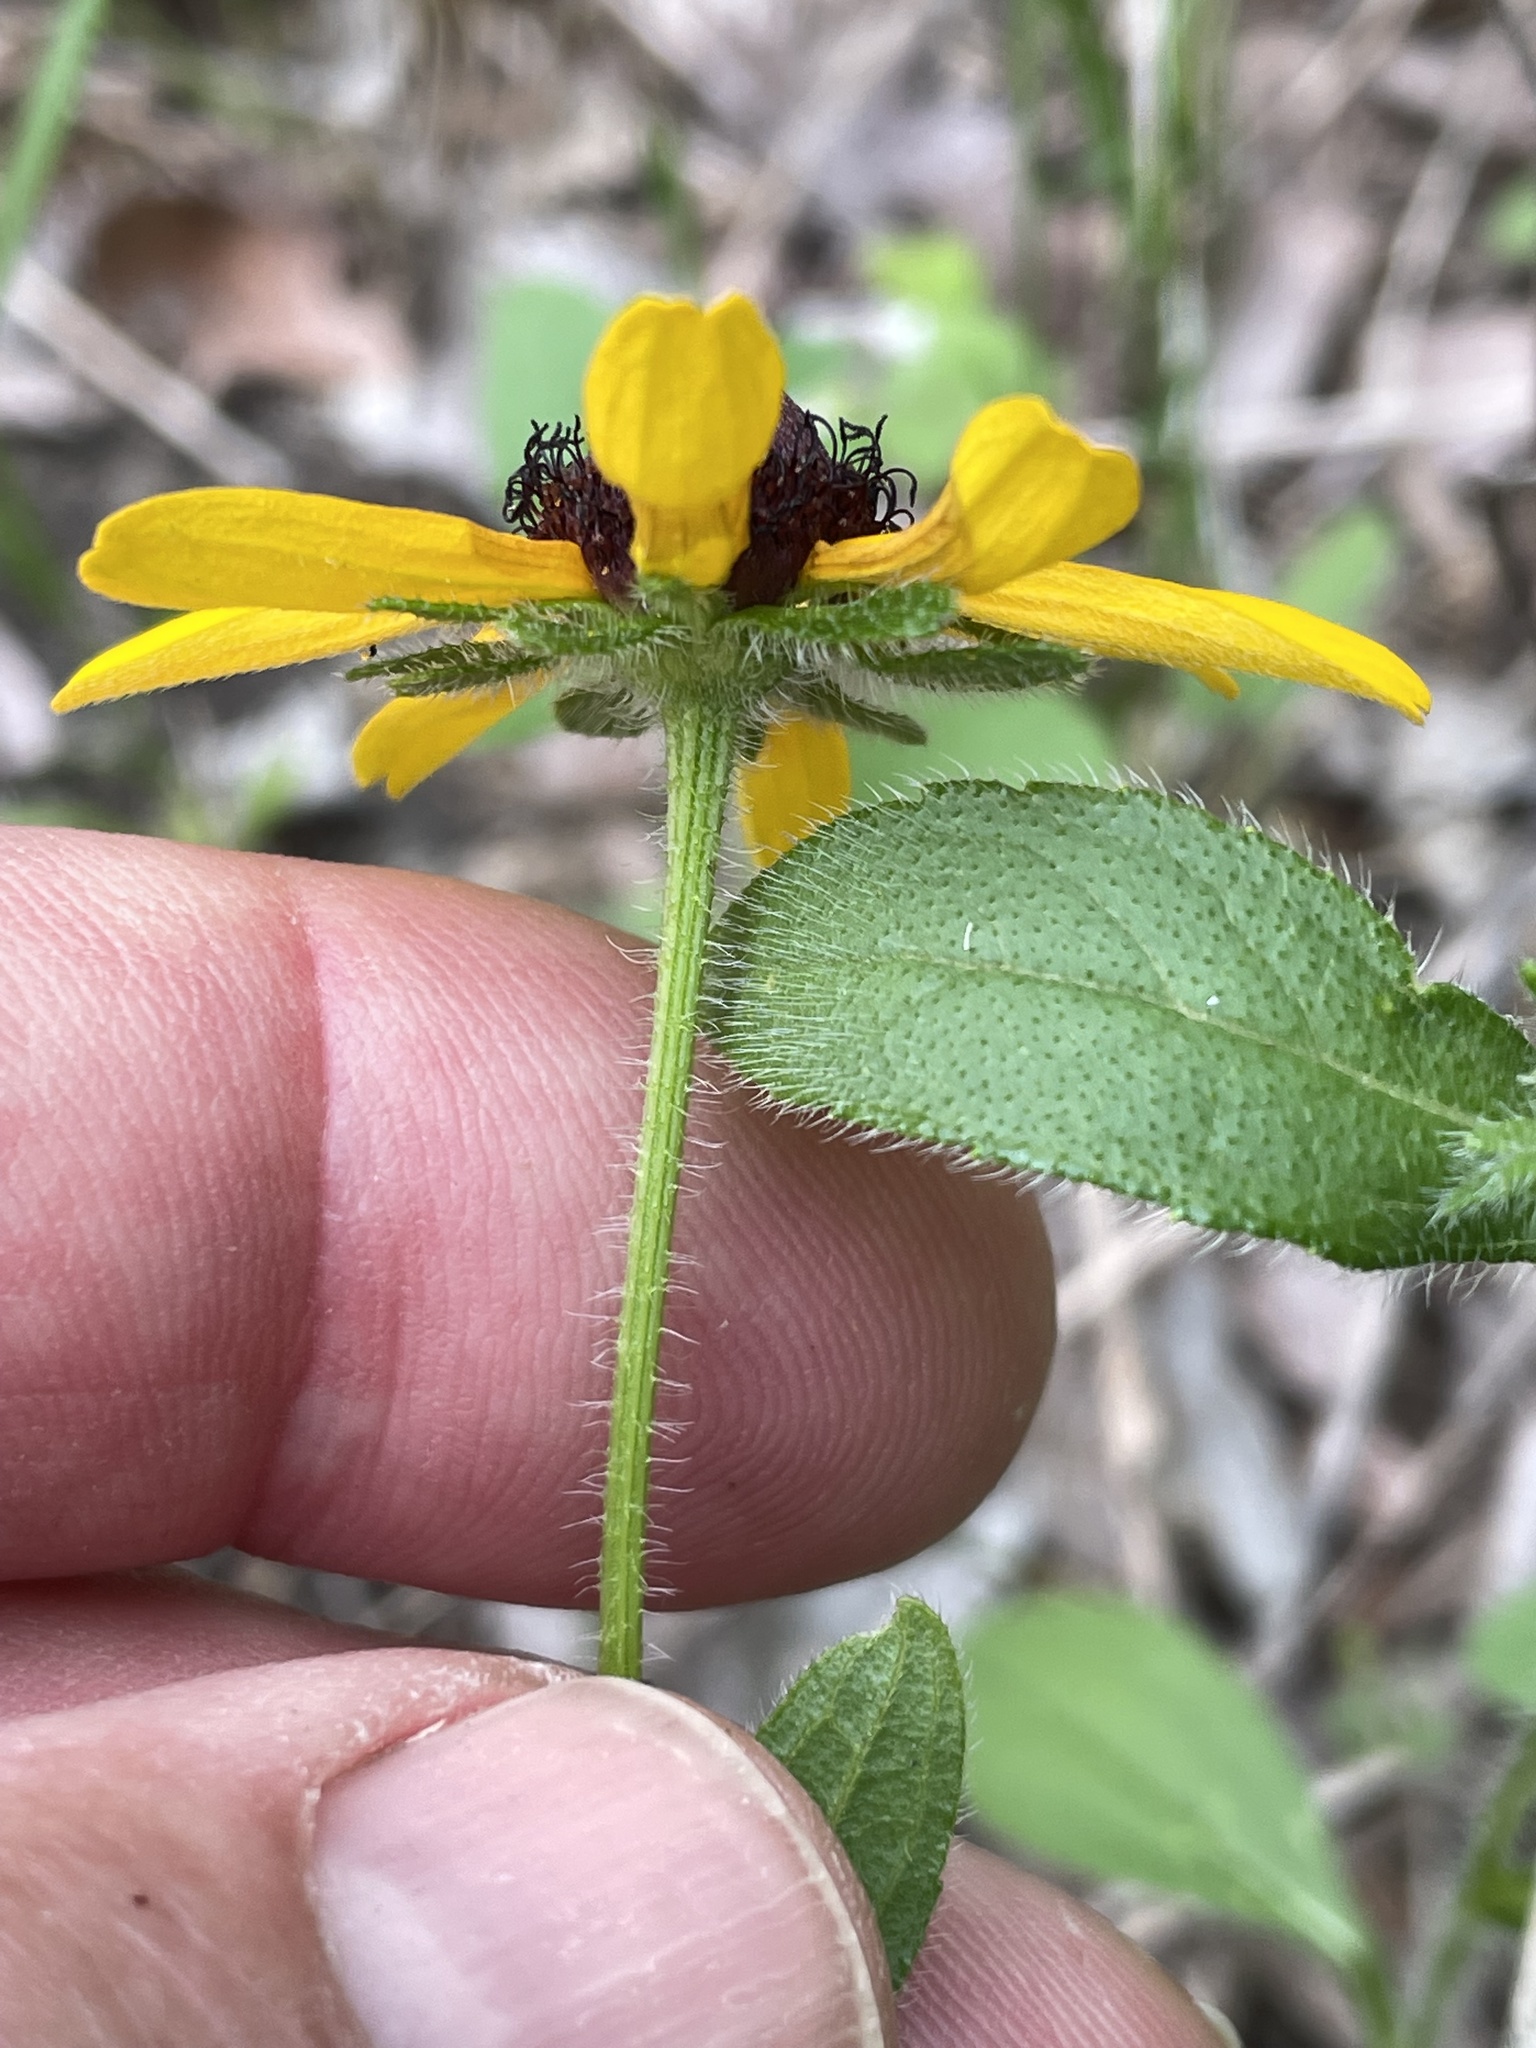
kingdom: Plantae
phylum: Tracheophyta
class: Magnoliopsida
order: Asterales
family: Asteraceae
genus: Rudbeckia
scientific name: Rudbeckia hirta
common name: Black-eyed-susan
